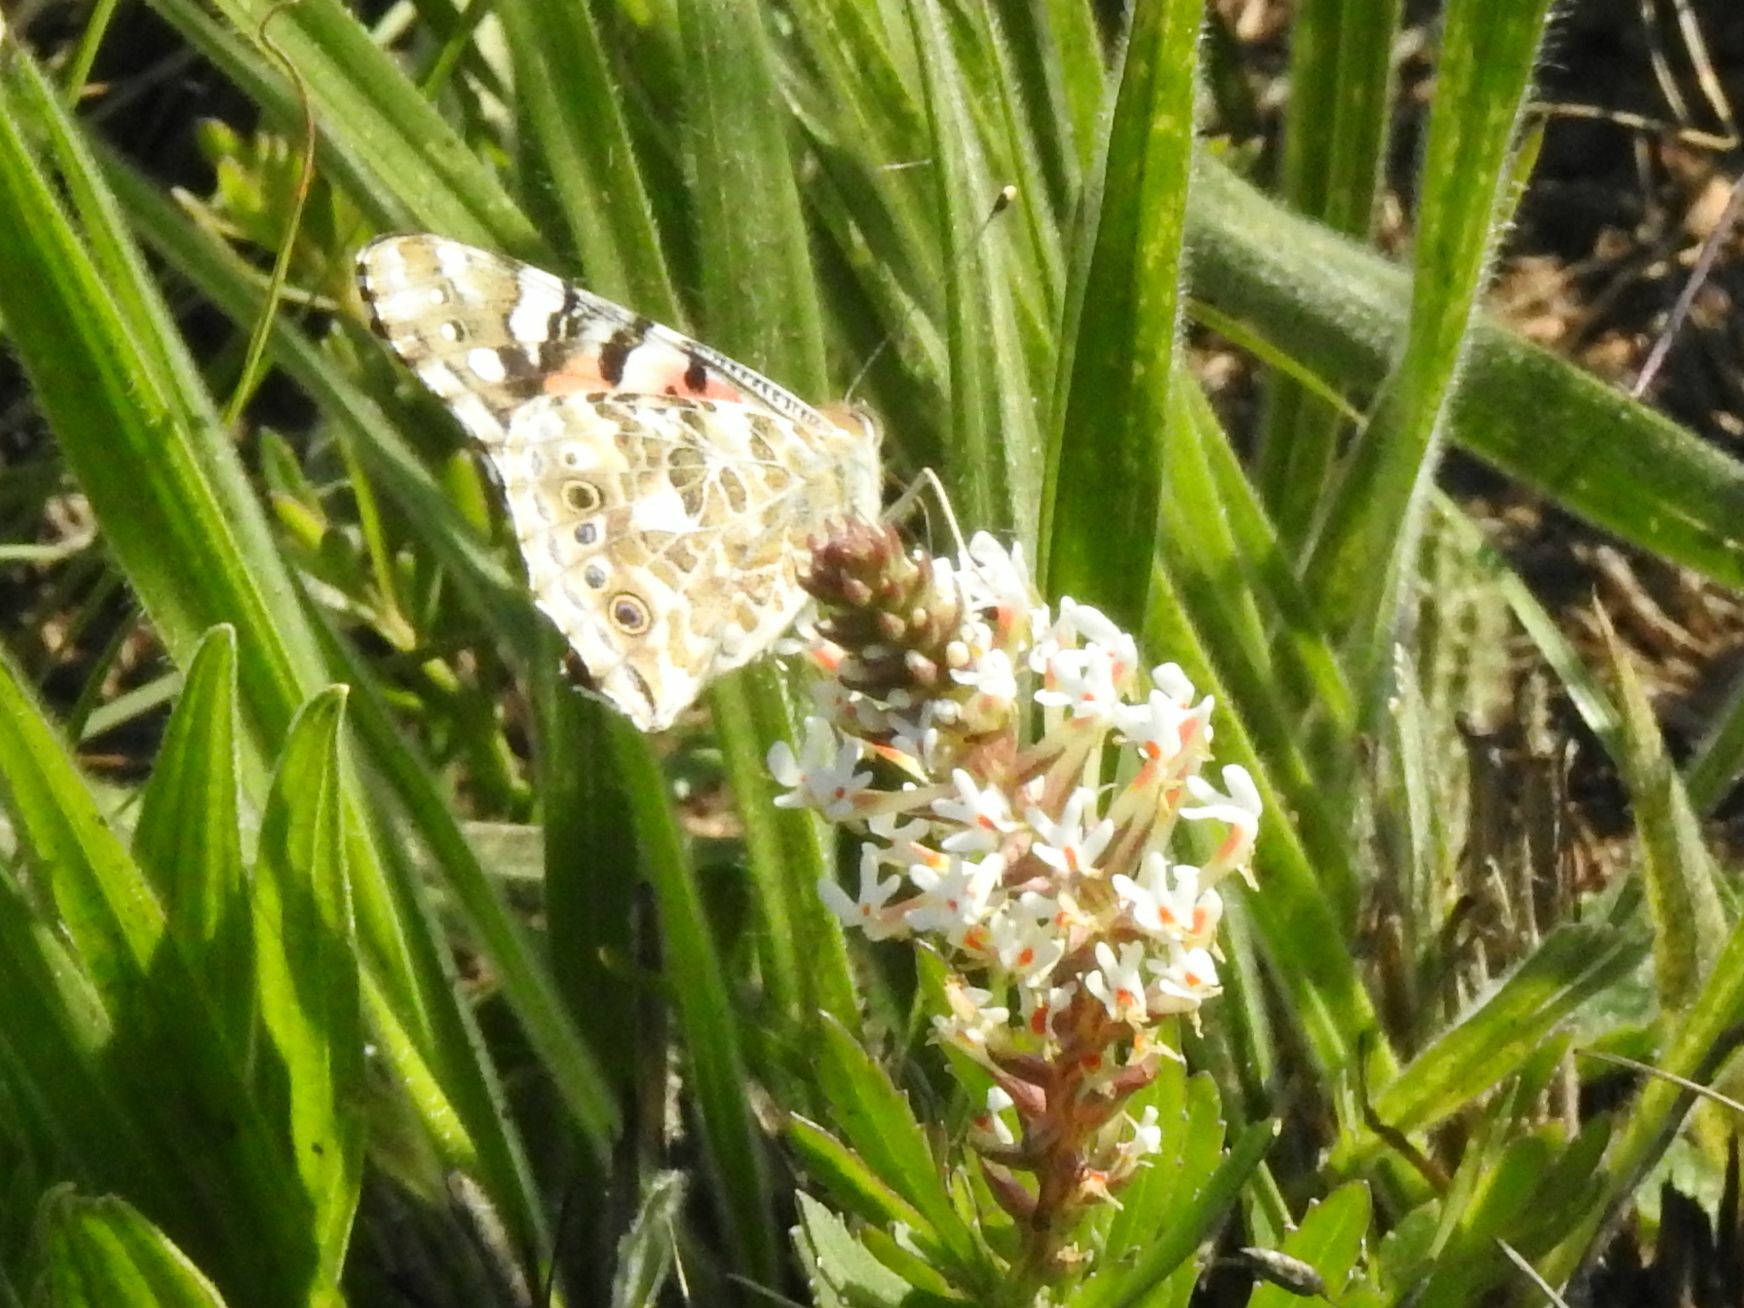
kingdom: Animalia
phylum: Arthropoda
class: Insecta
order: Lepidoptera
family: Nymphalidae
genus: Vanessa
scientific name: Vanessa cardui
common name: Painted lady
